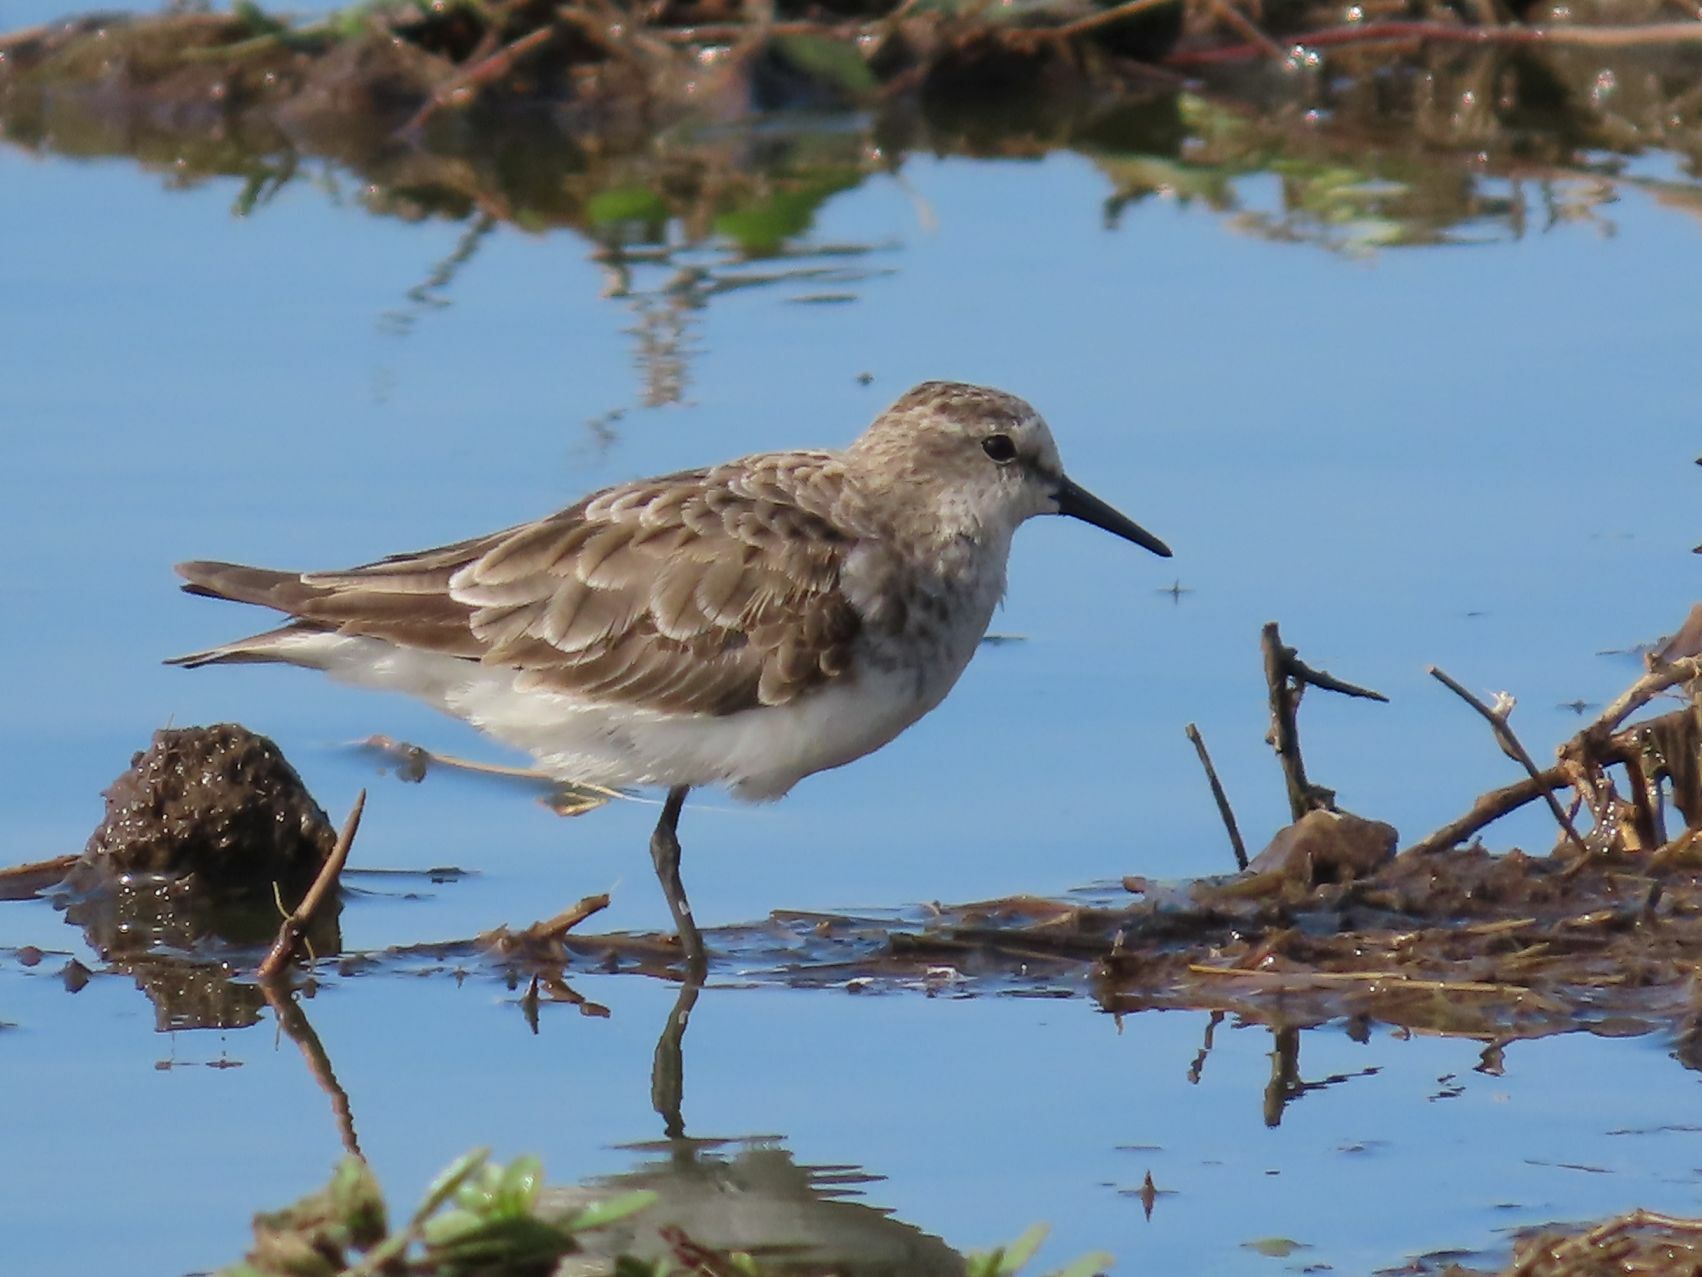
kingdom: Animalia
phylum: Chordata
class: Aves
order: Charadriiformes
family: Scolopacidae
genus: Calidris
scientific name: Calidris minuta
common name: Little stint
